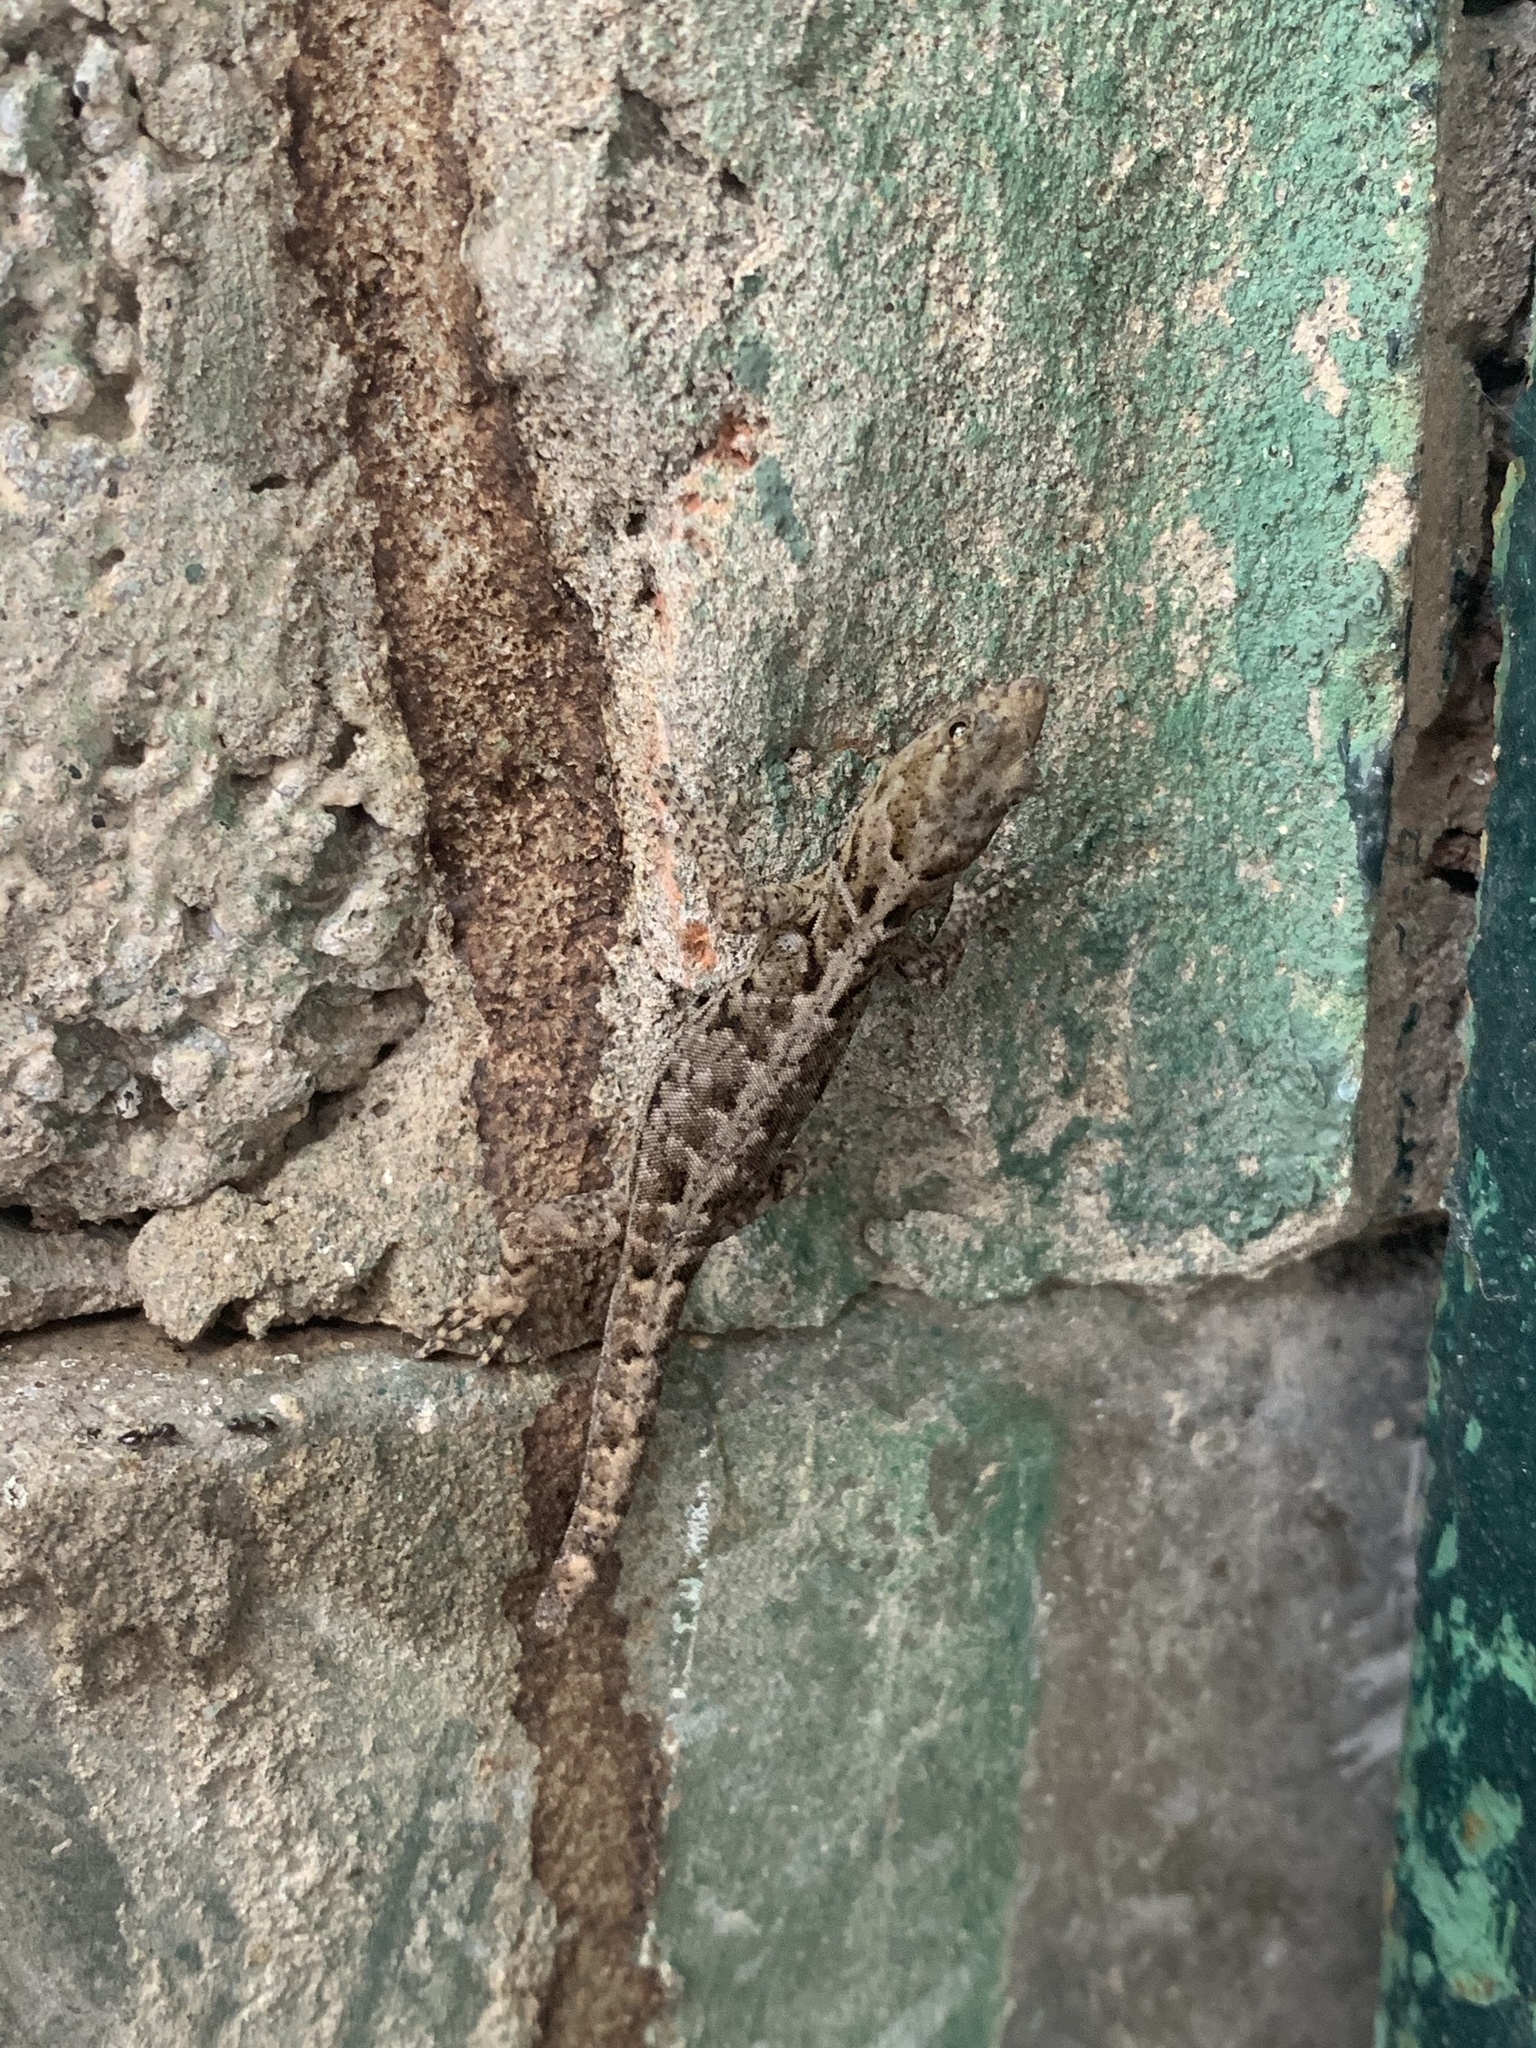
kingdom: Animalia
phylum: Chordata
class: Squamata
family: Sphaerodactylidae
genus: Gonatodes
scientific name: Gonatodes caudiscutatus
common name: Shieldhead gecko
